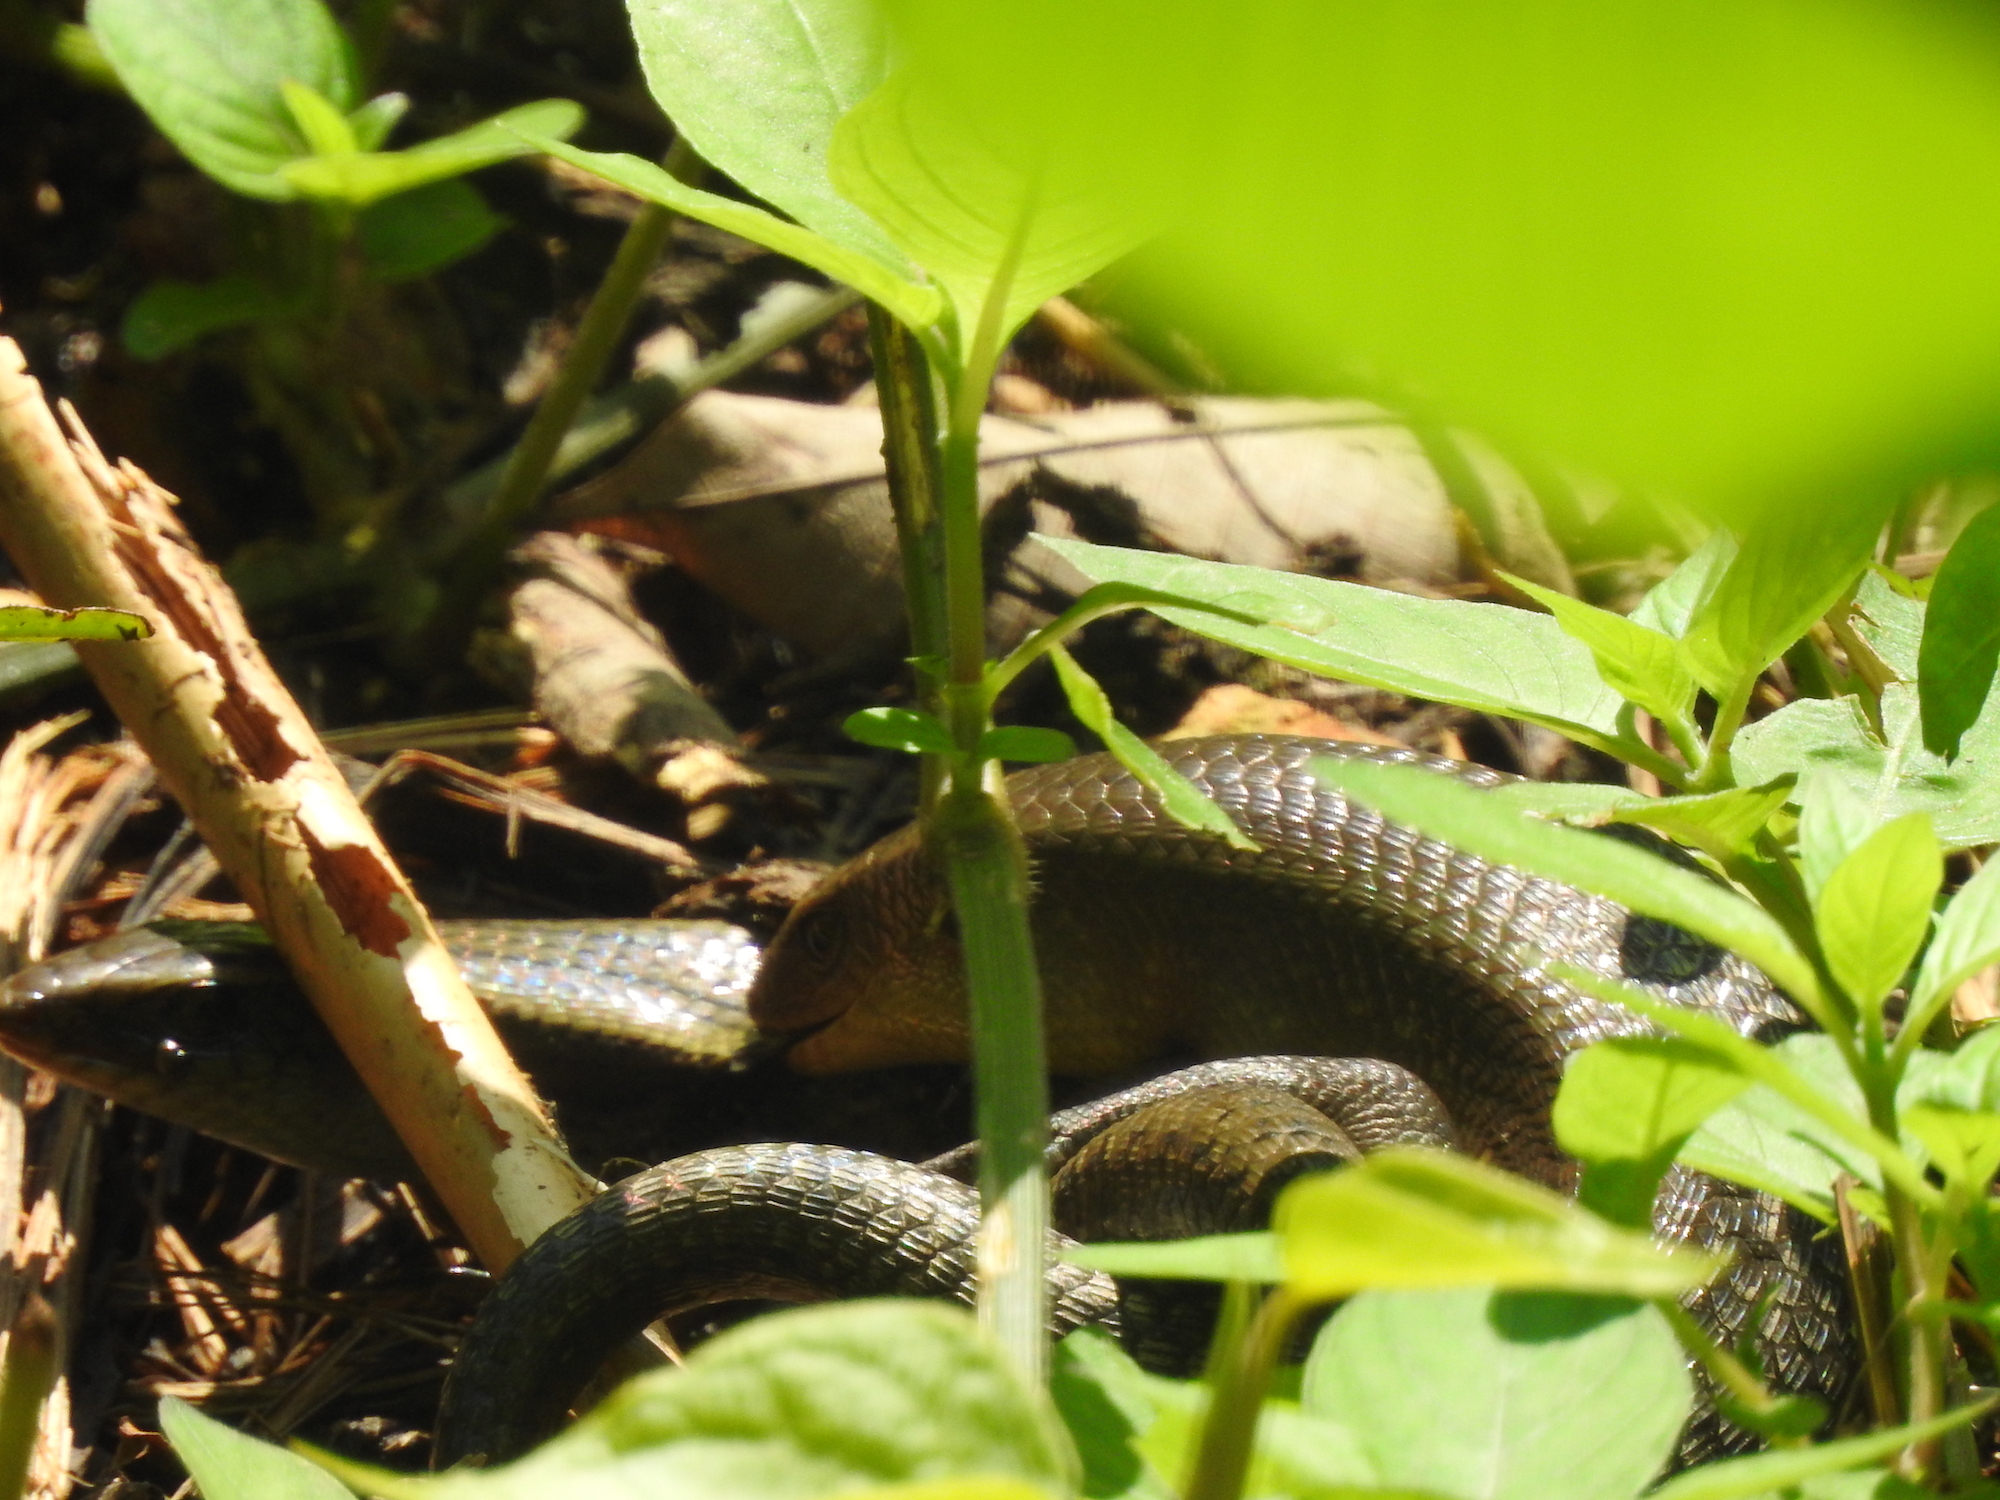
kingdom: Animalia
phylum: Chordata
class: Squamata
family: Scincidae
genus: Eutropis
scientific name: Eutropis multifasciata
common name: Common mabuya
